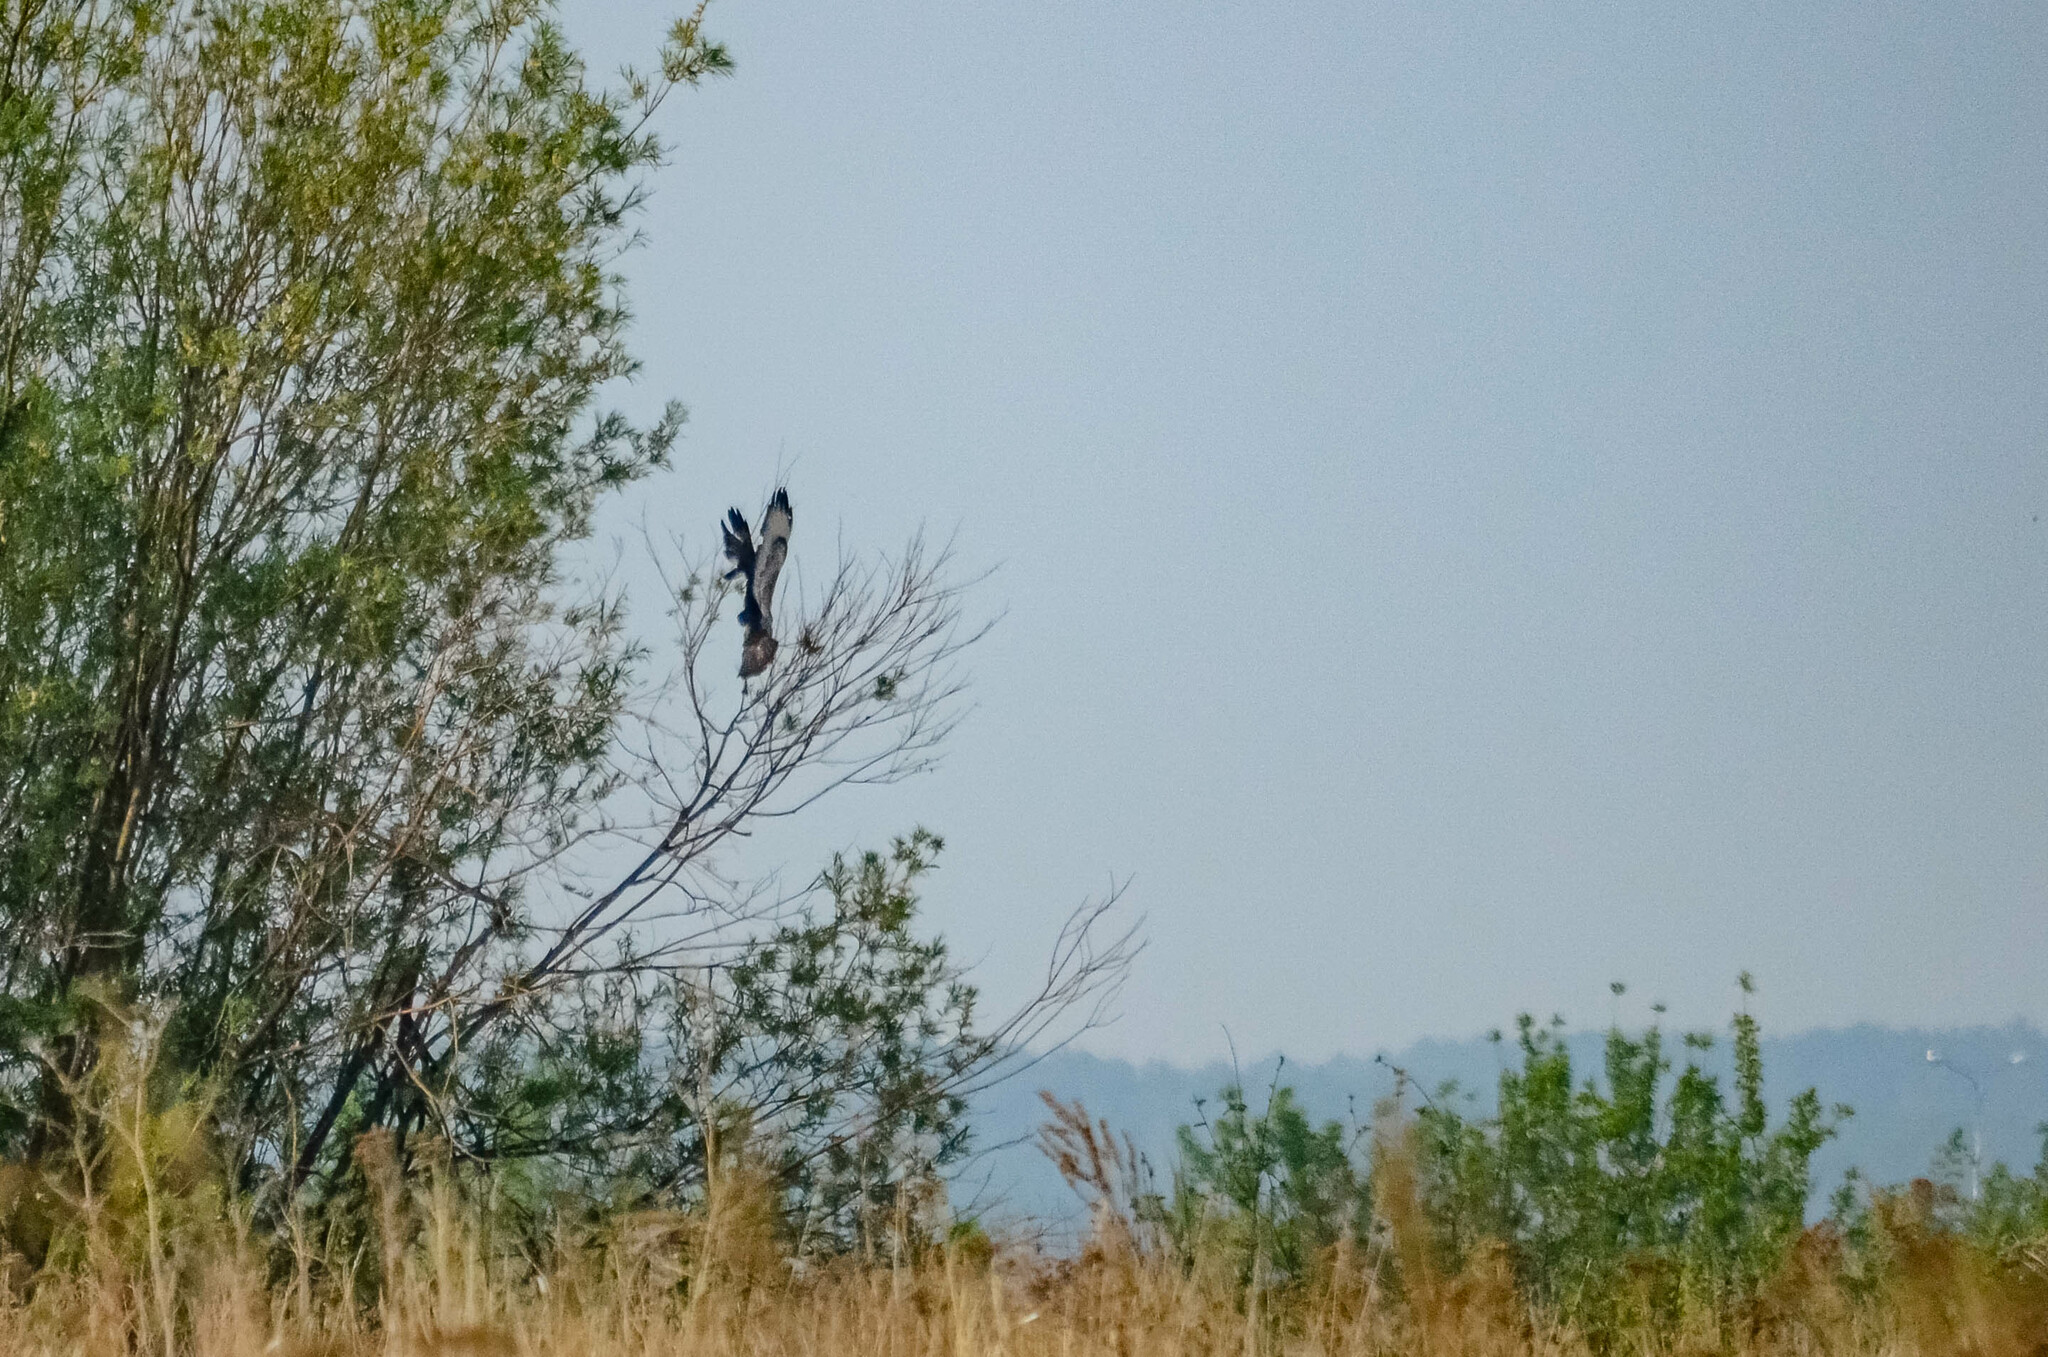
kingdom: Animalia
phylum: Chordata
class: Aves
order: Accipitriformes
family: Accipitridae
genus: Buteo
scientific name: Buteo buteo
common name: Common buzzard
